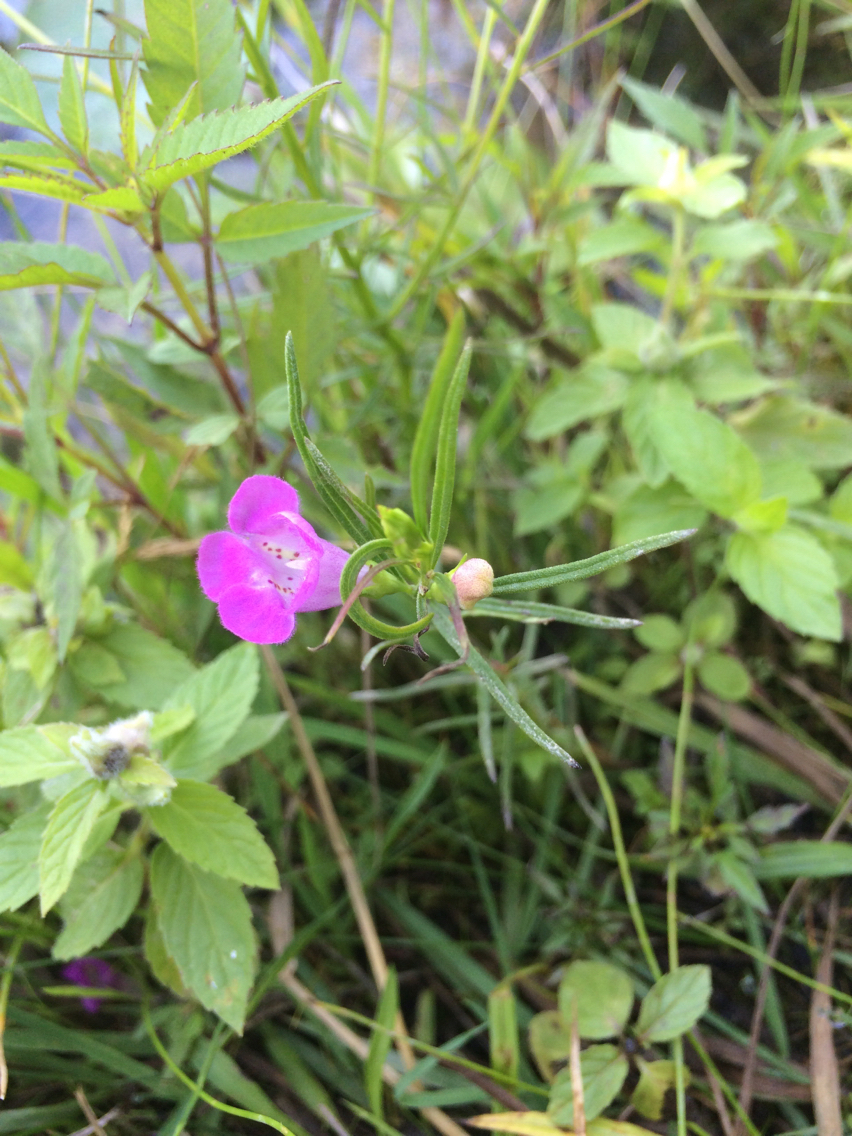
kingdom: Plantae
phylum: Tracheophyta
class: Magnoliopsida
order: Lamiales
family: Orobanchaceae
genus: Agalinis
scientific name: Agalinis purpurea
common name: Purple false foxglove
